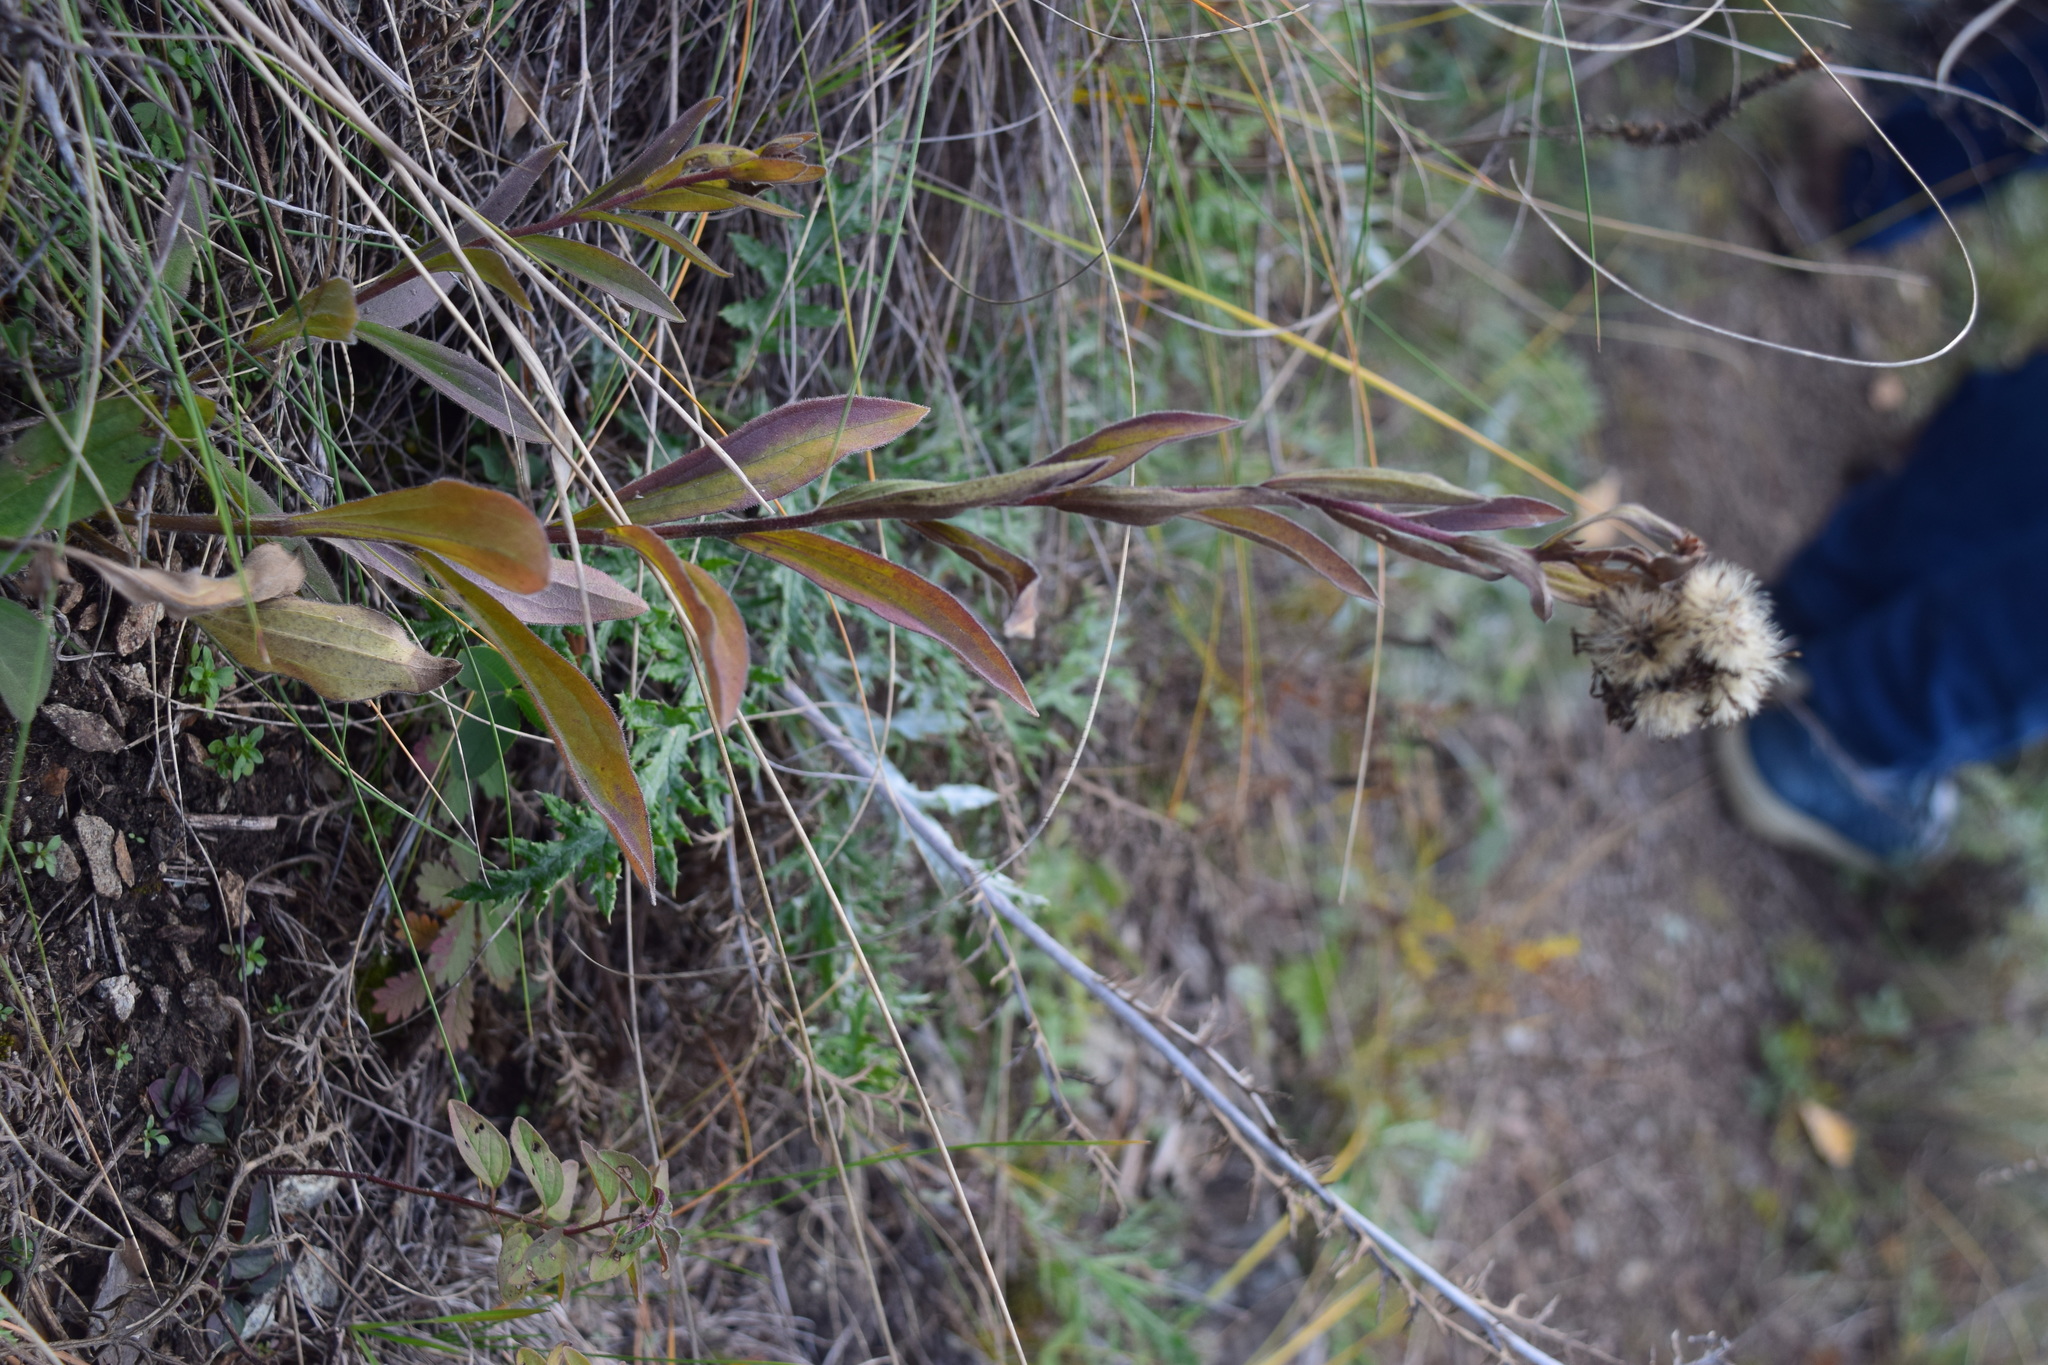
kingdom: Plantae
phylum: Tracheophyta
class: Magnoliopsida
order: Asterales
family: Asteraceae
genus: Aster
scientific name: Aster amellus
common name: European michaelmas daisy
